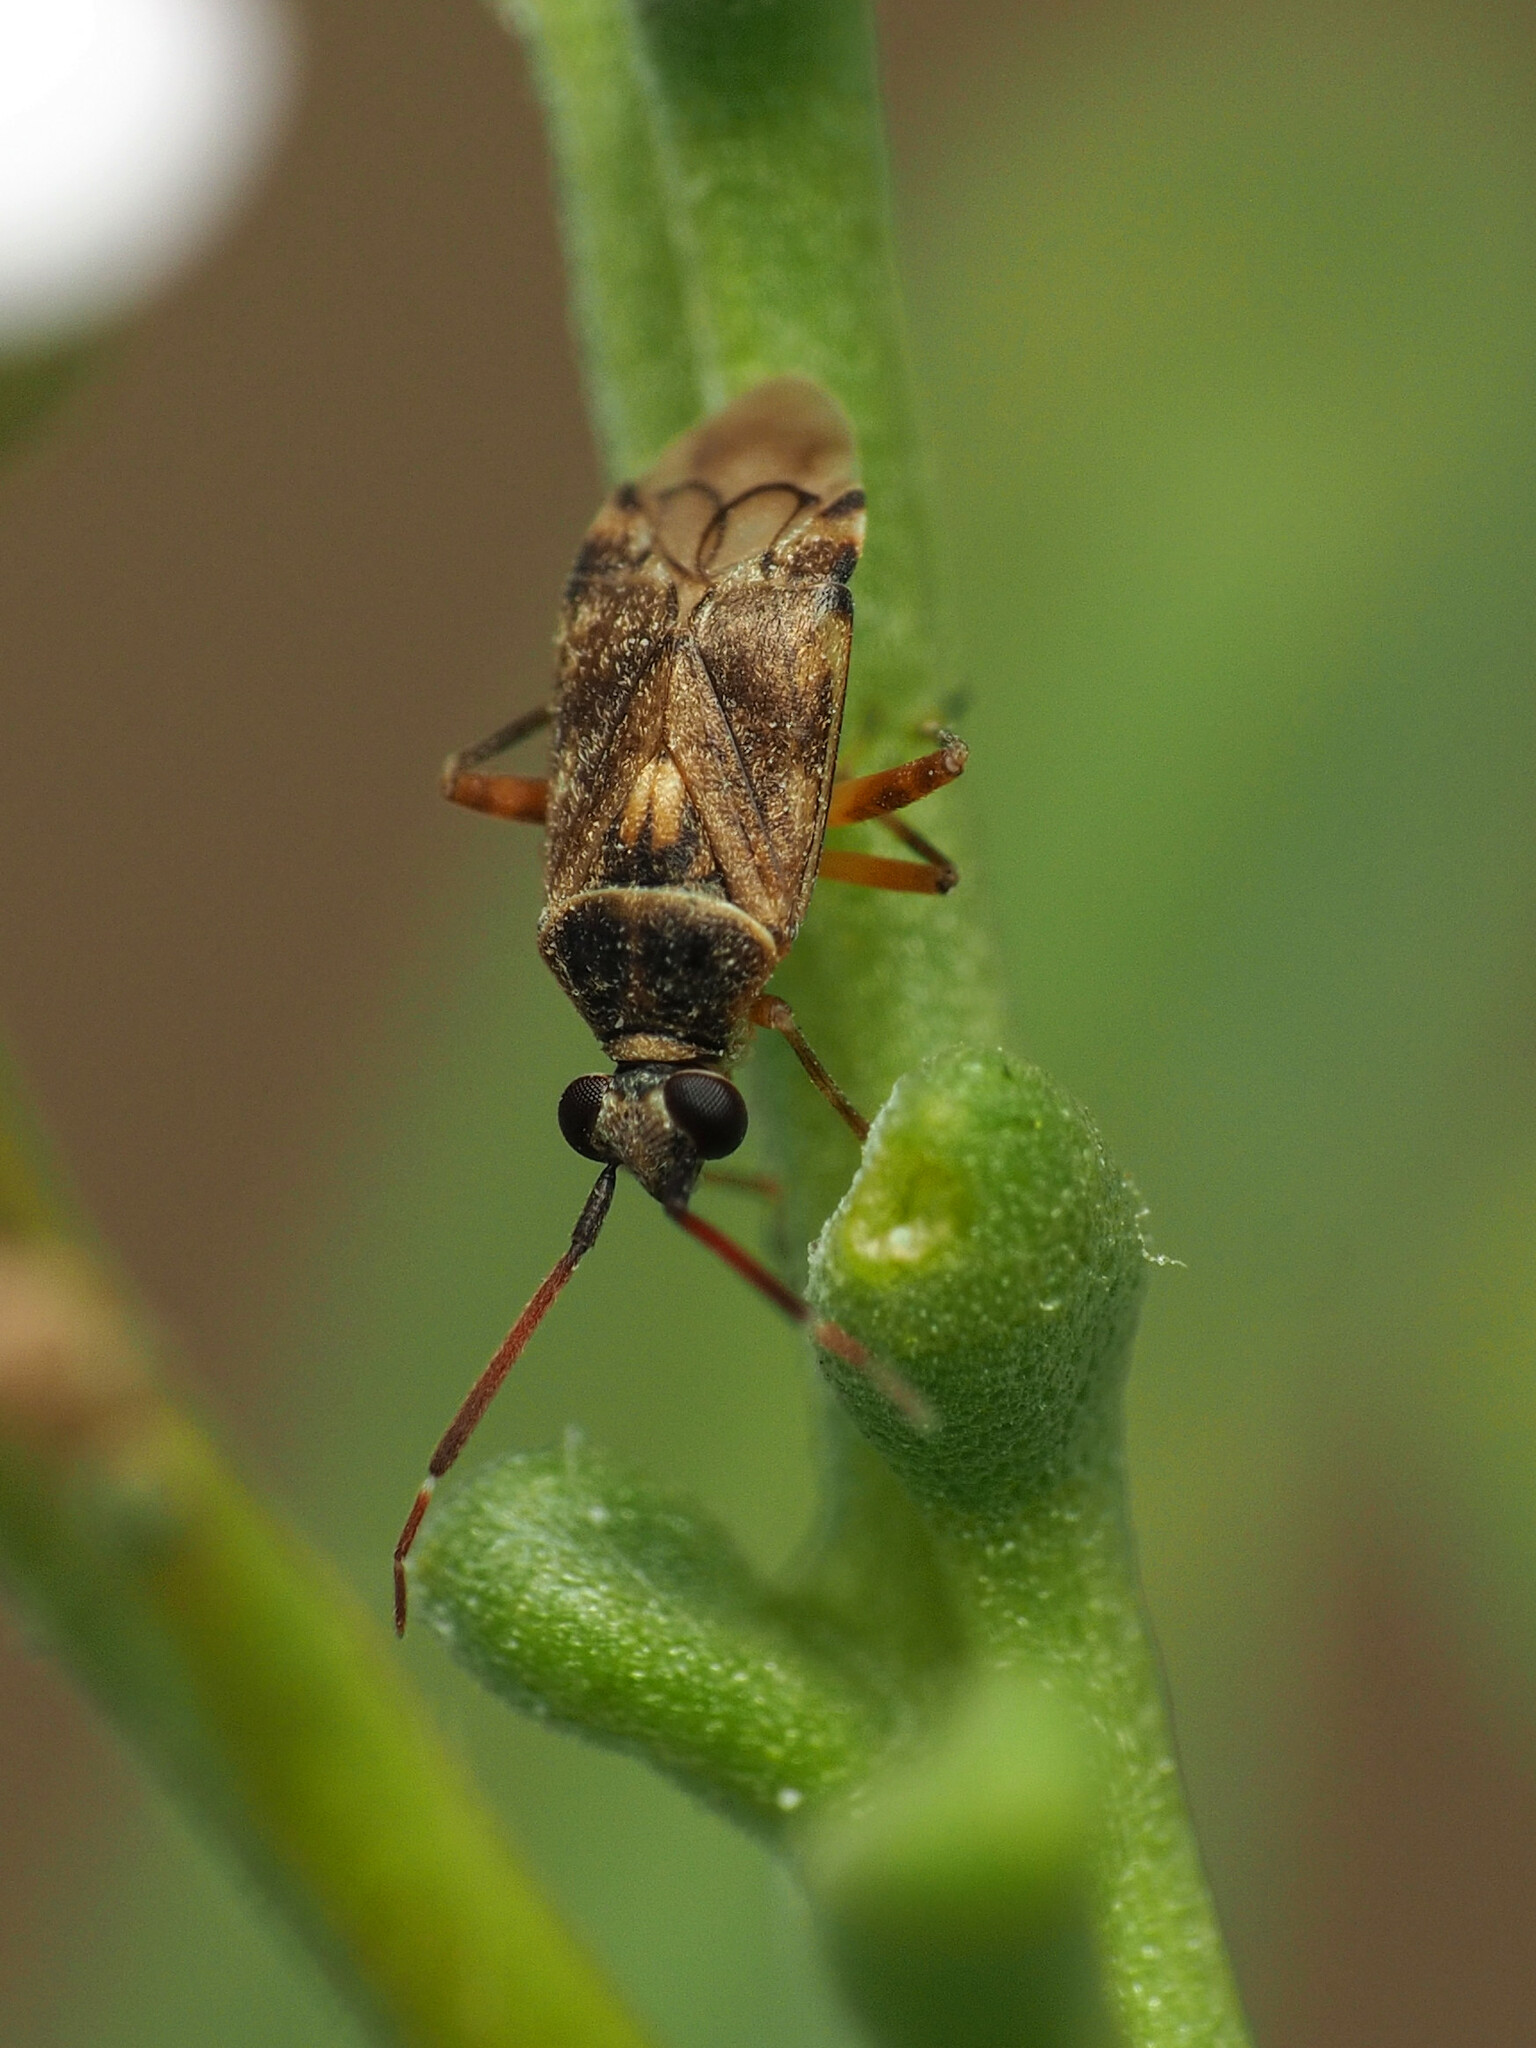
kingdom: Animalia
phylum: Arthropoda
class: Insecta
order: Hemiptera
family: Miridae
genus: Eurystylus
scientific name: Eurystylus bellevoyei
